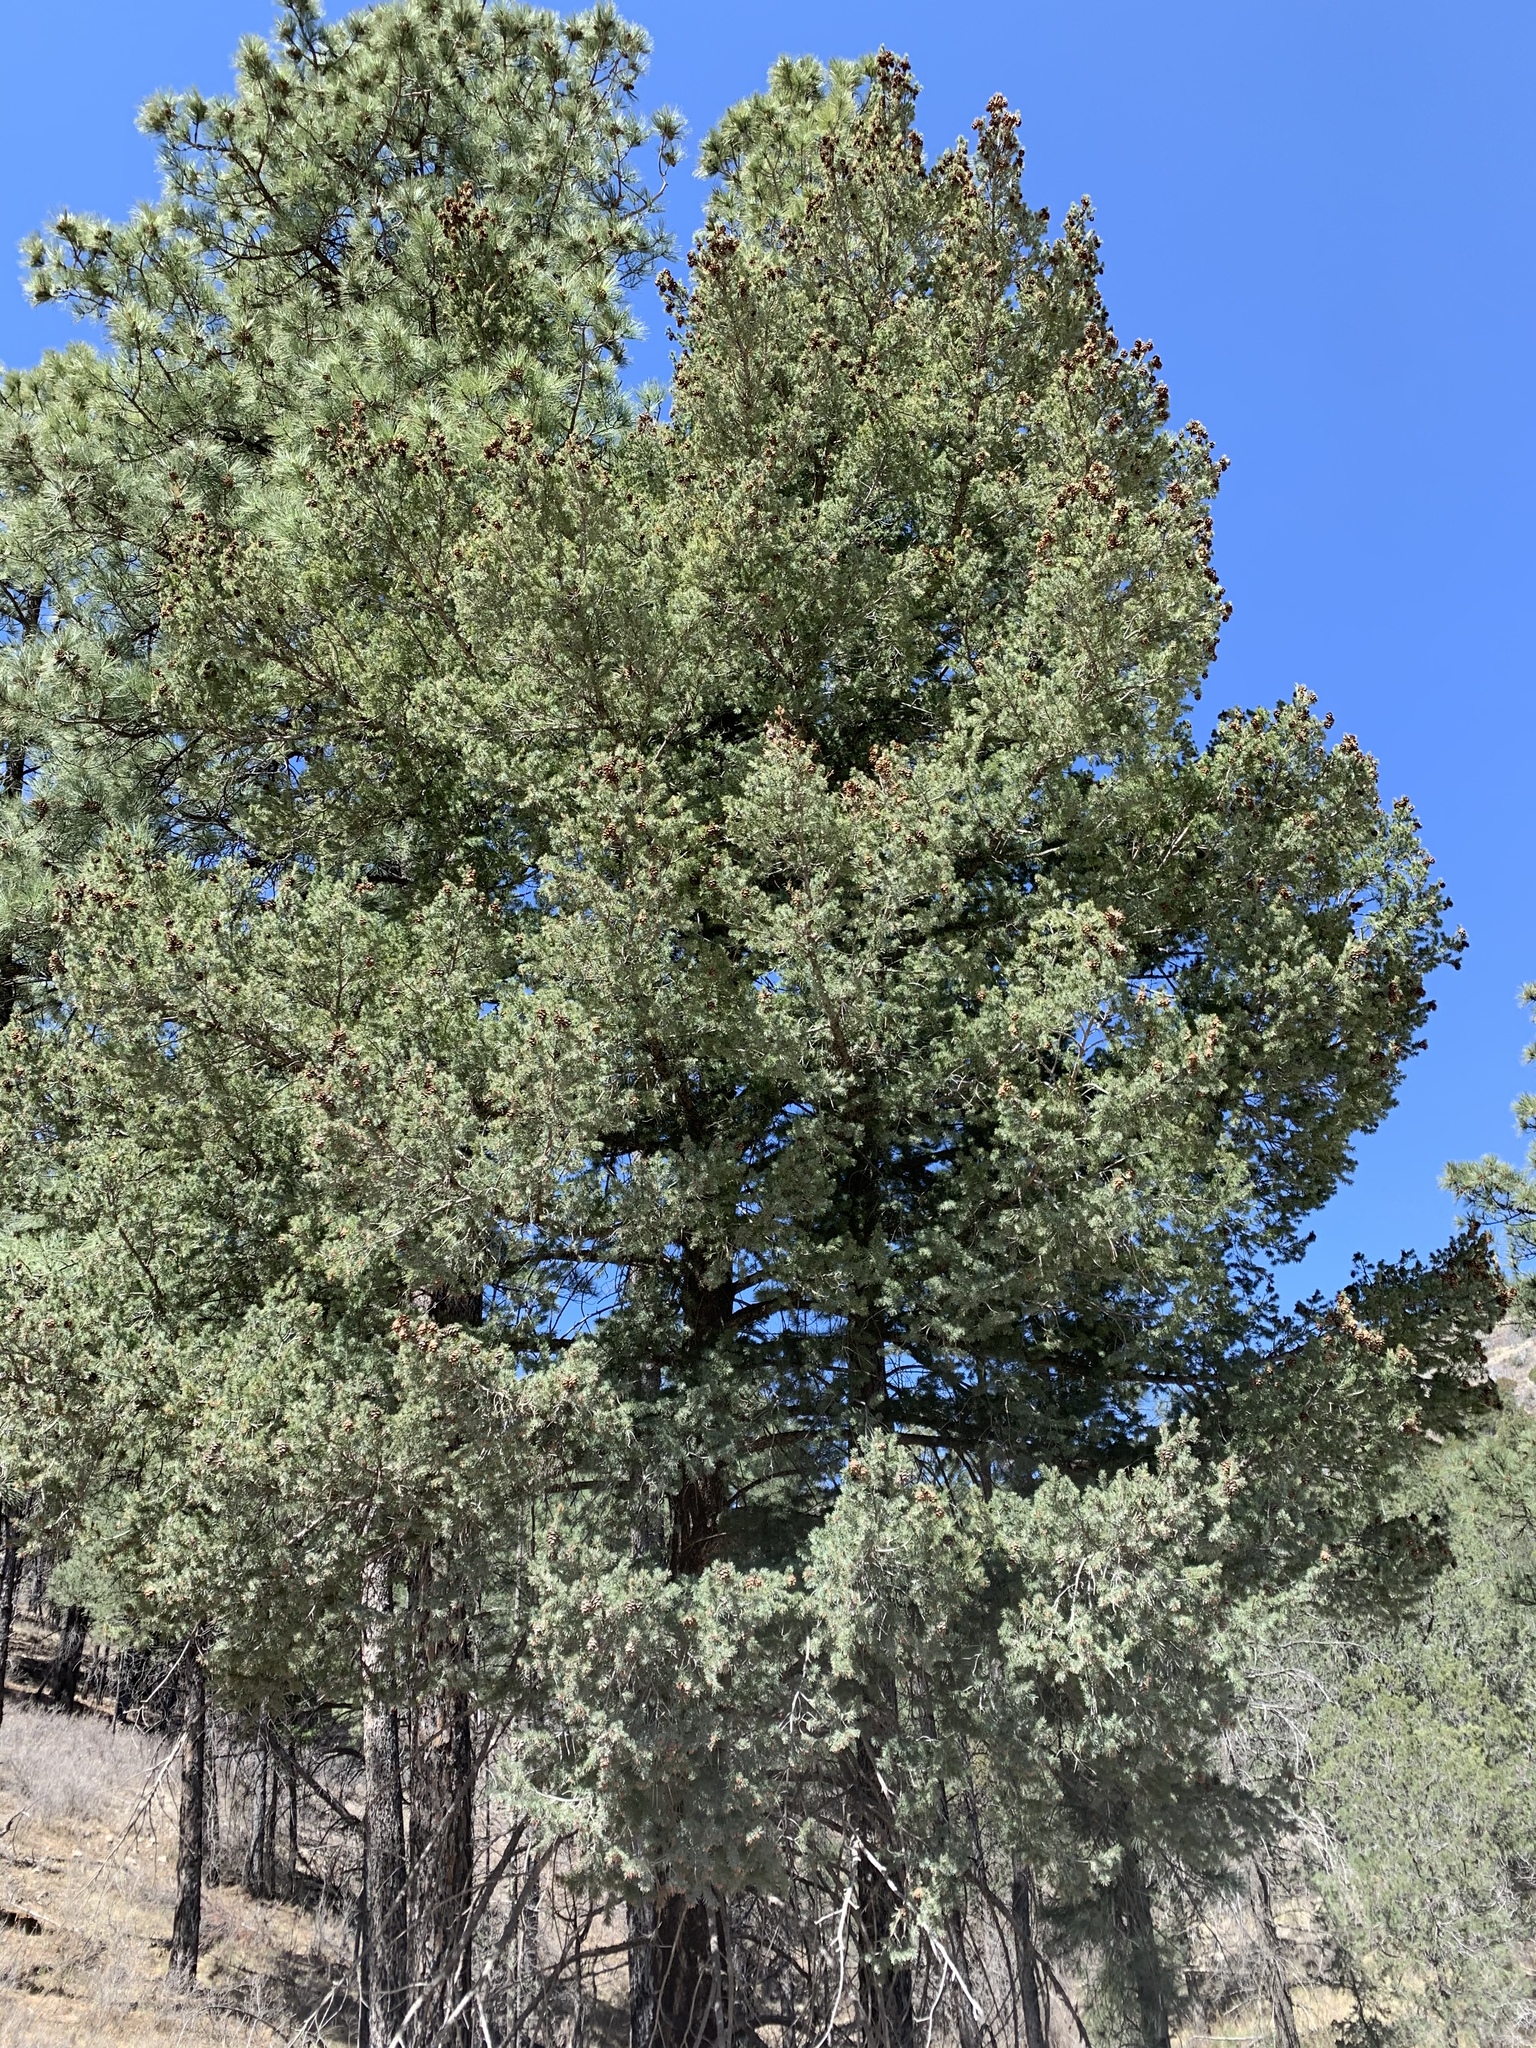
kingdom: Plantae
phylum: Tracheophyta
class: Pinopsida
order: Pinales
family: Pinaceae
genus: Pseudotsuga
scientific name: Pseudotsuga menziesii
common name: Douglas fir
